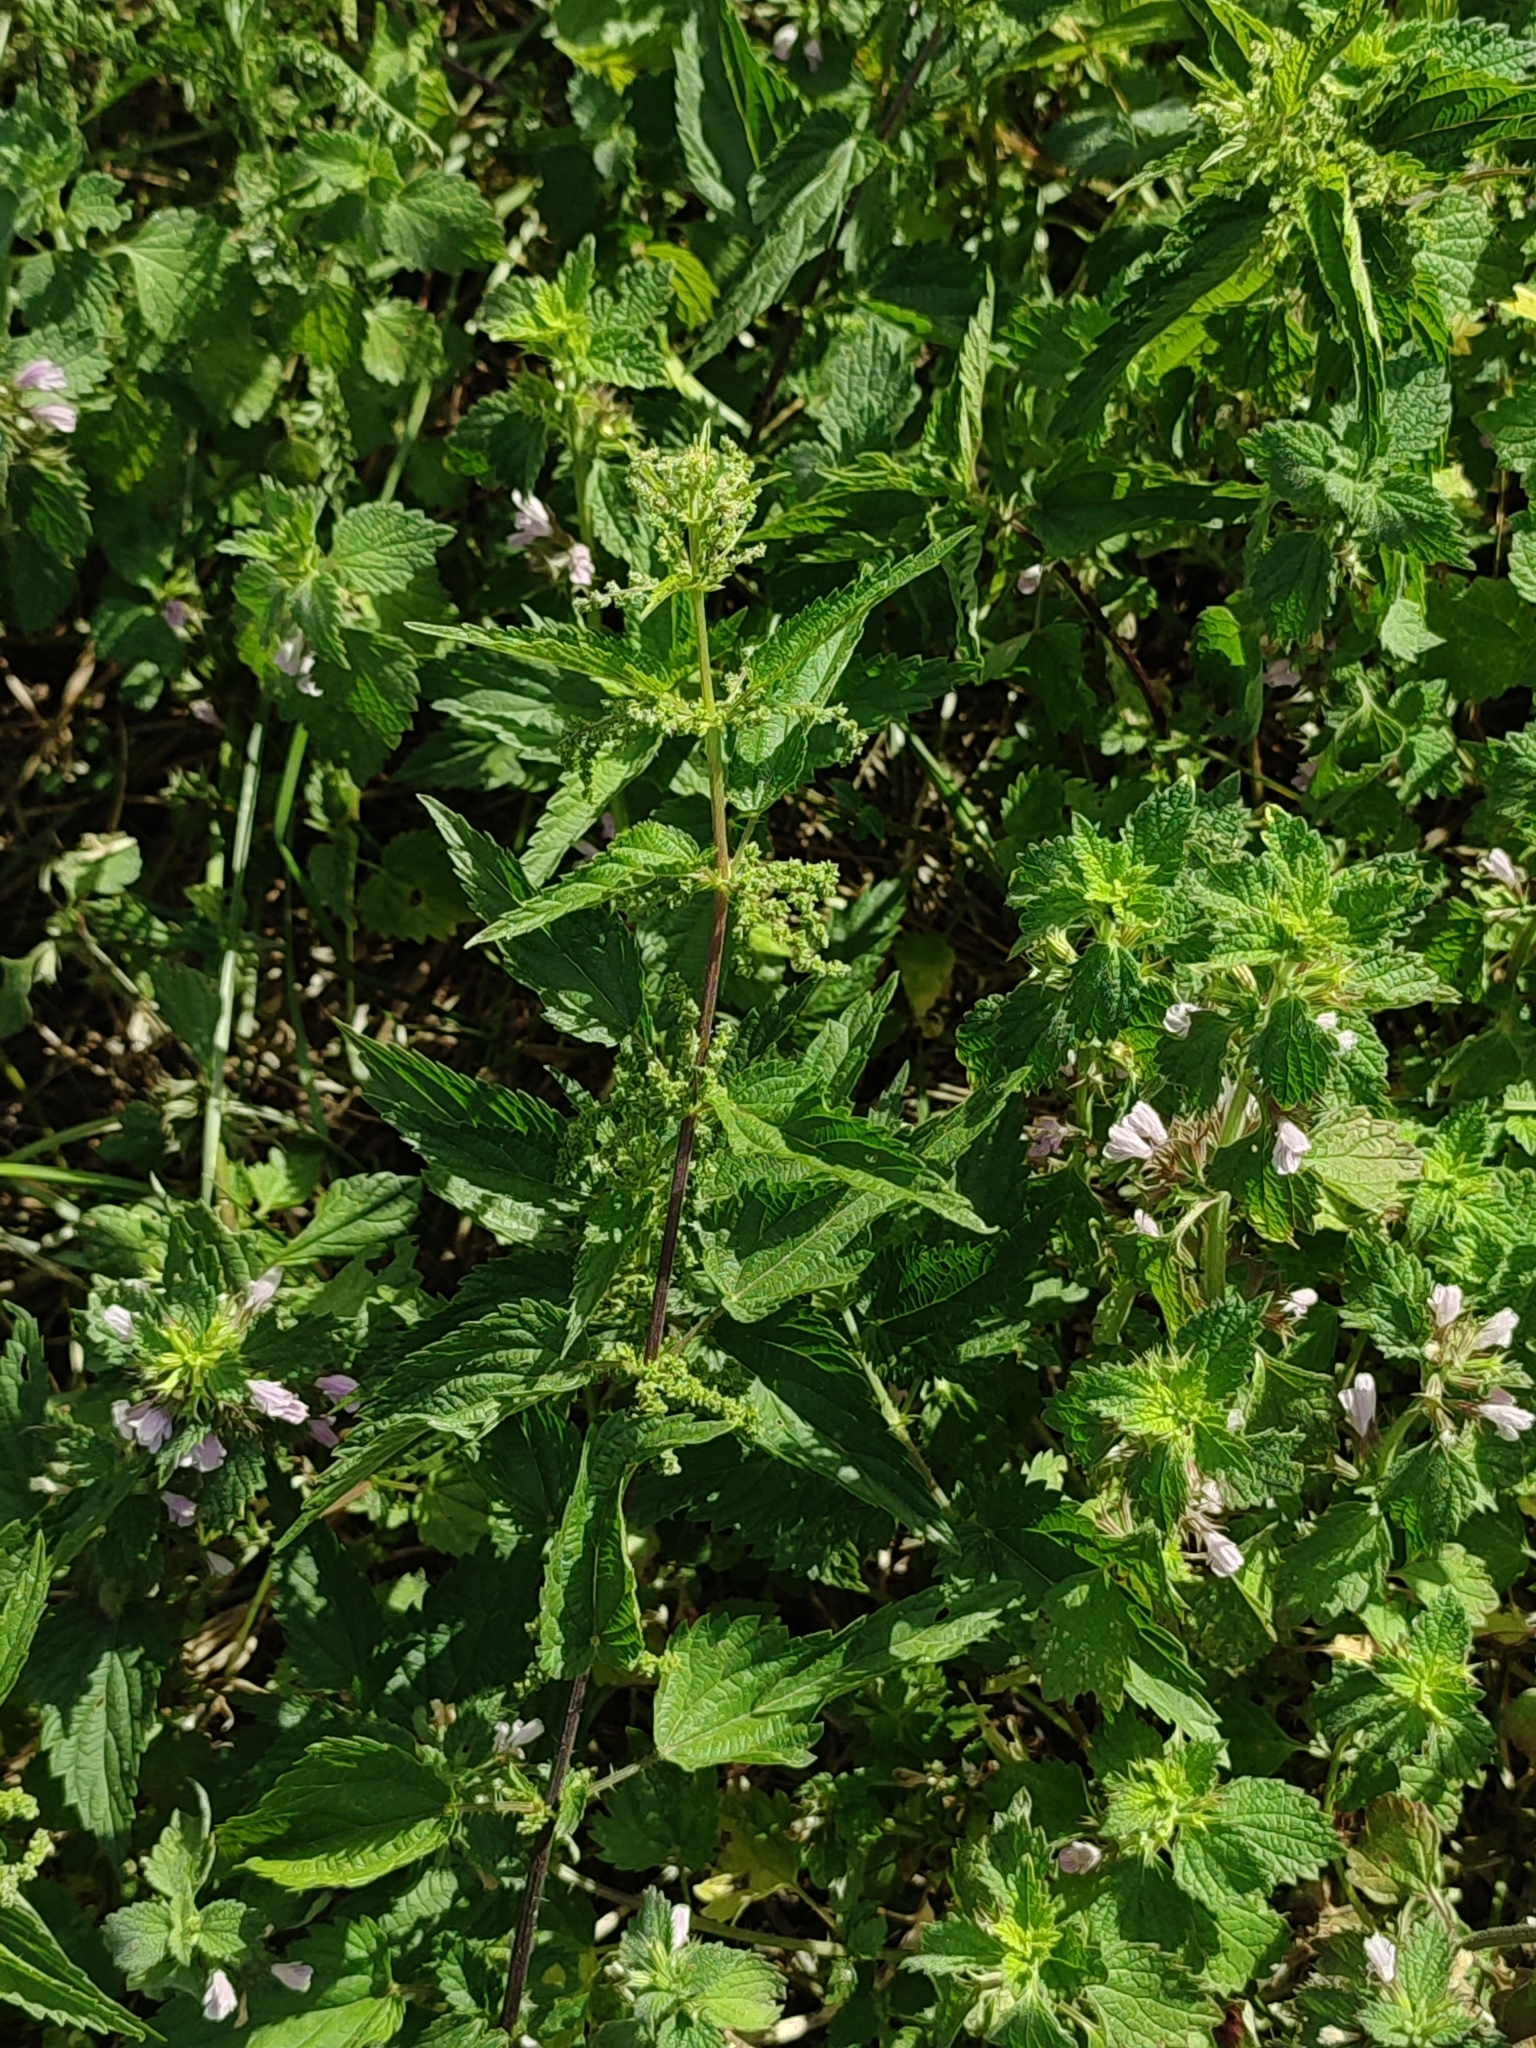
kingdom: Plantae
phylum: Tracheophyta
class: Magnoliopsida
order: Rosales
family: Urticaceae
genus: Urtica
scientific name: Urtica dioica
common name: Common nettle
